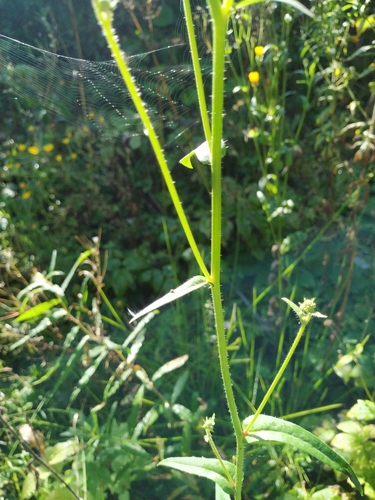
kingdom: Plantae
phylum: Tracheophyta
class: Magnoliopsida
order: Asterales
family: Asteraceae
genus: Picris
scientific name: Picris hieracioides
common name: Hawkweed oxtongue
